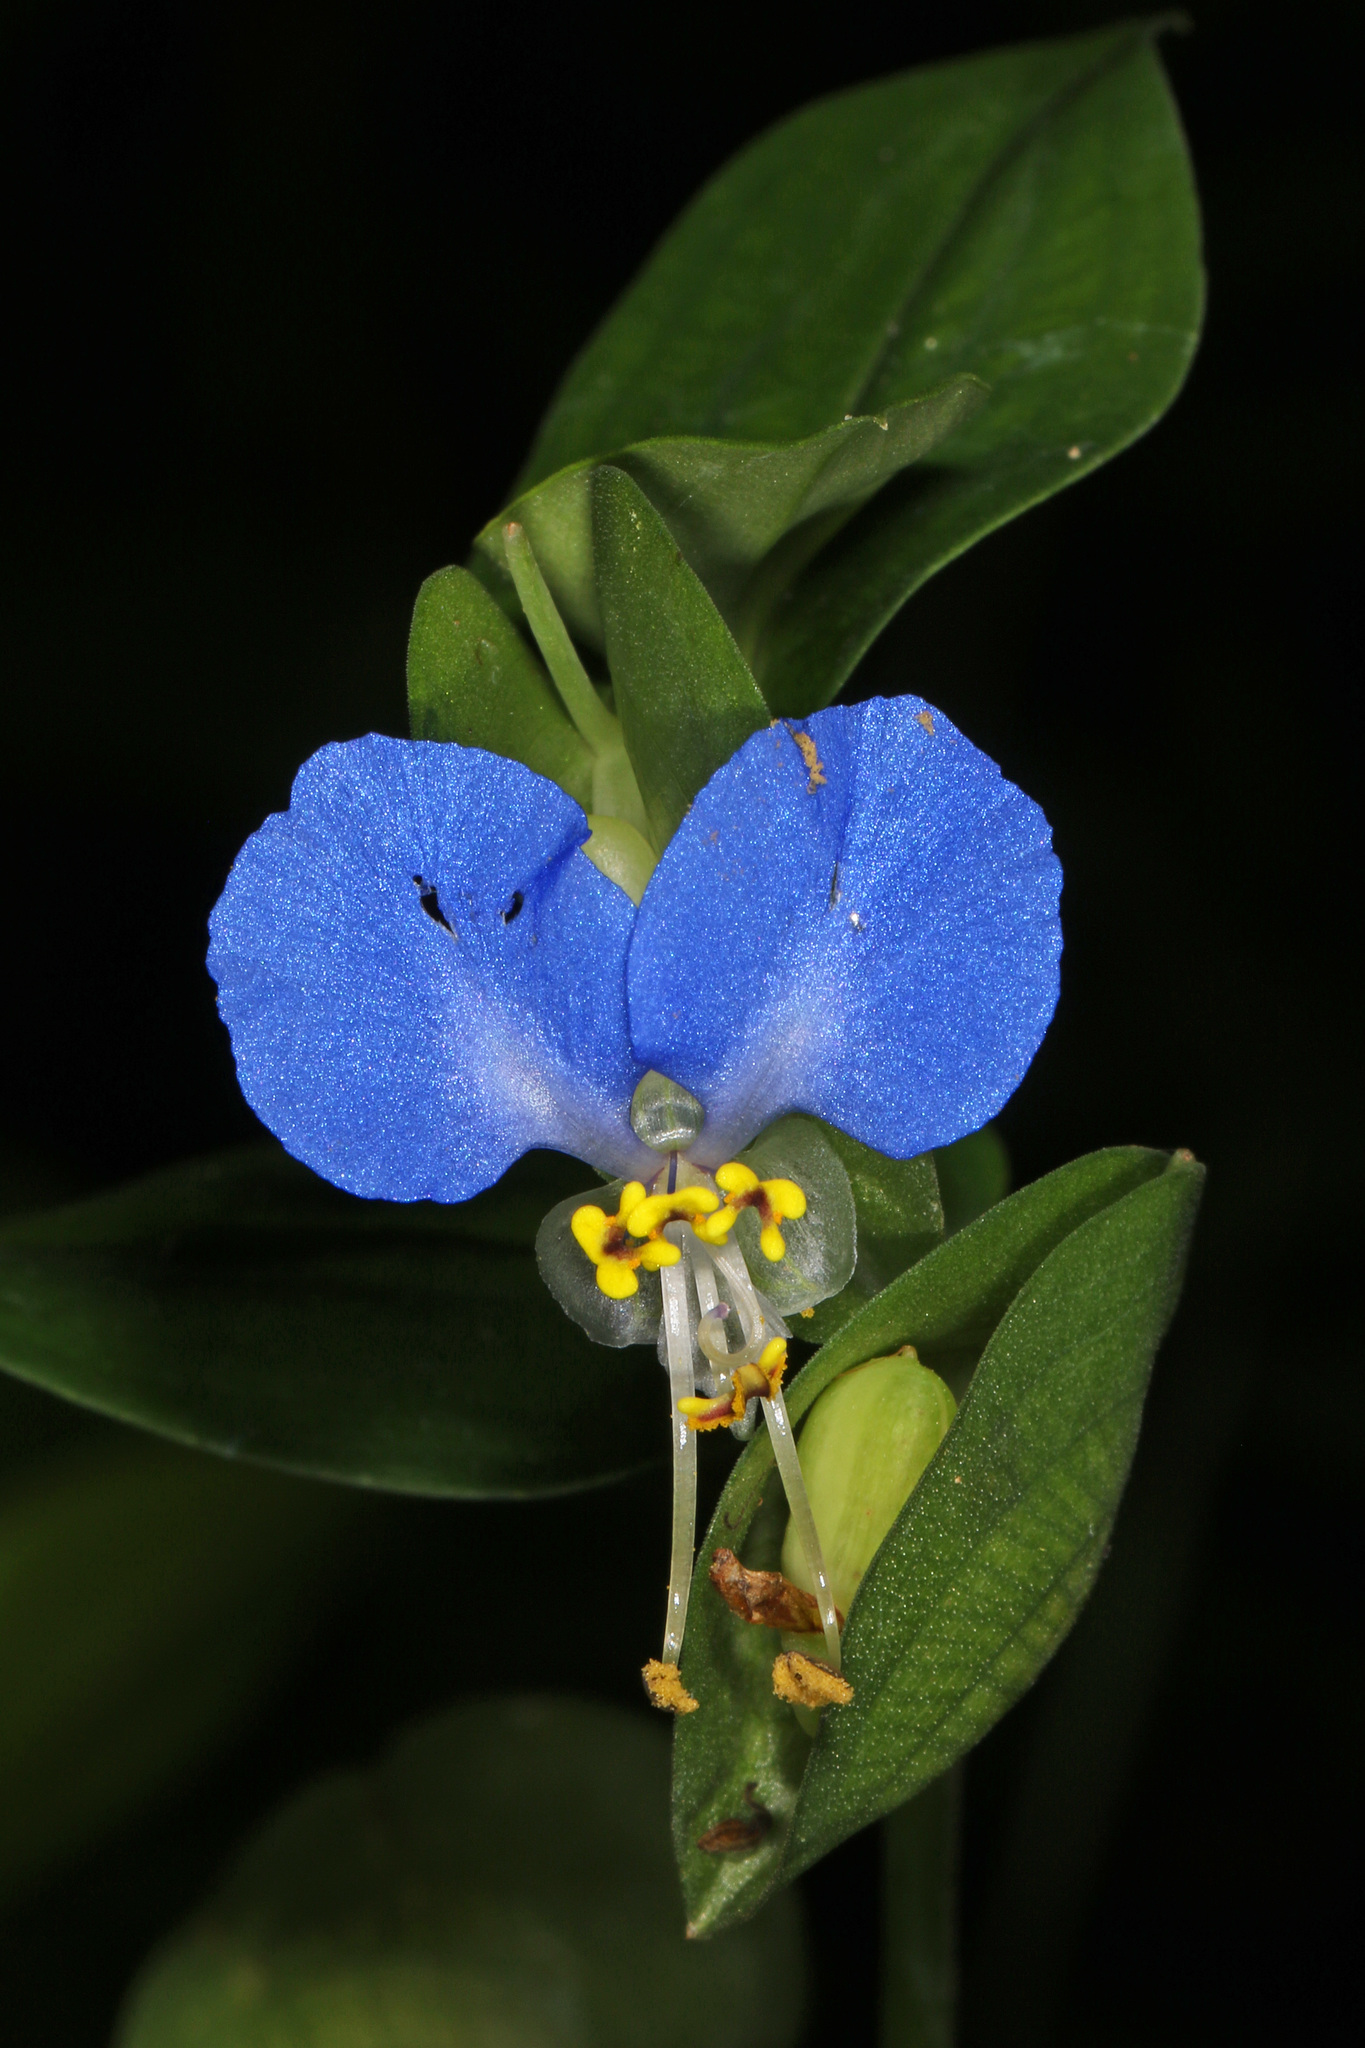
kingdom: Plantae
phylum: Tracheophyta
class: Liliopsida
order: Commelinales
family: Commelinaceae
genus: Commelina
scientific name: Commelina communis
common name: Asiatic dayflower
